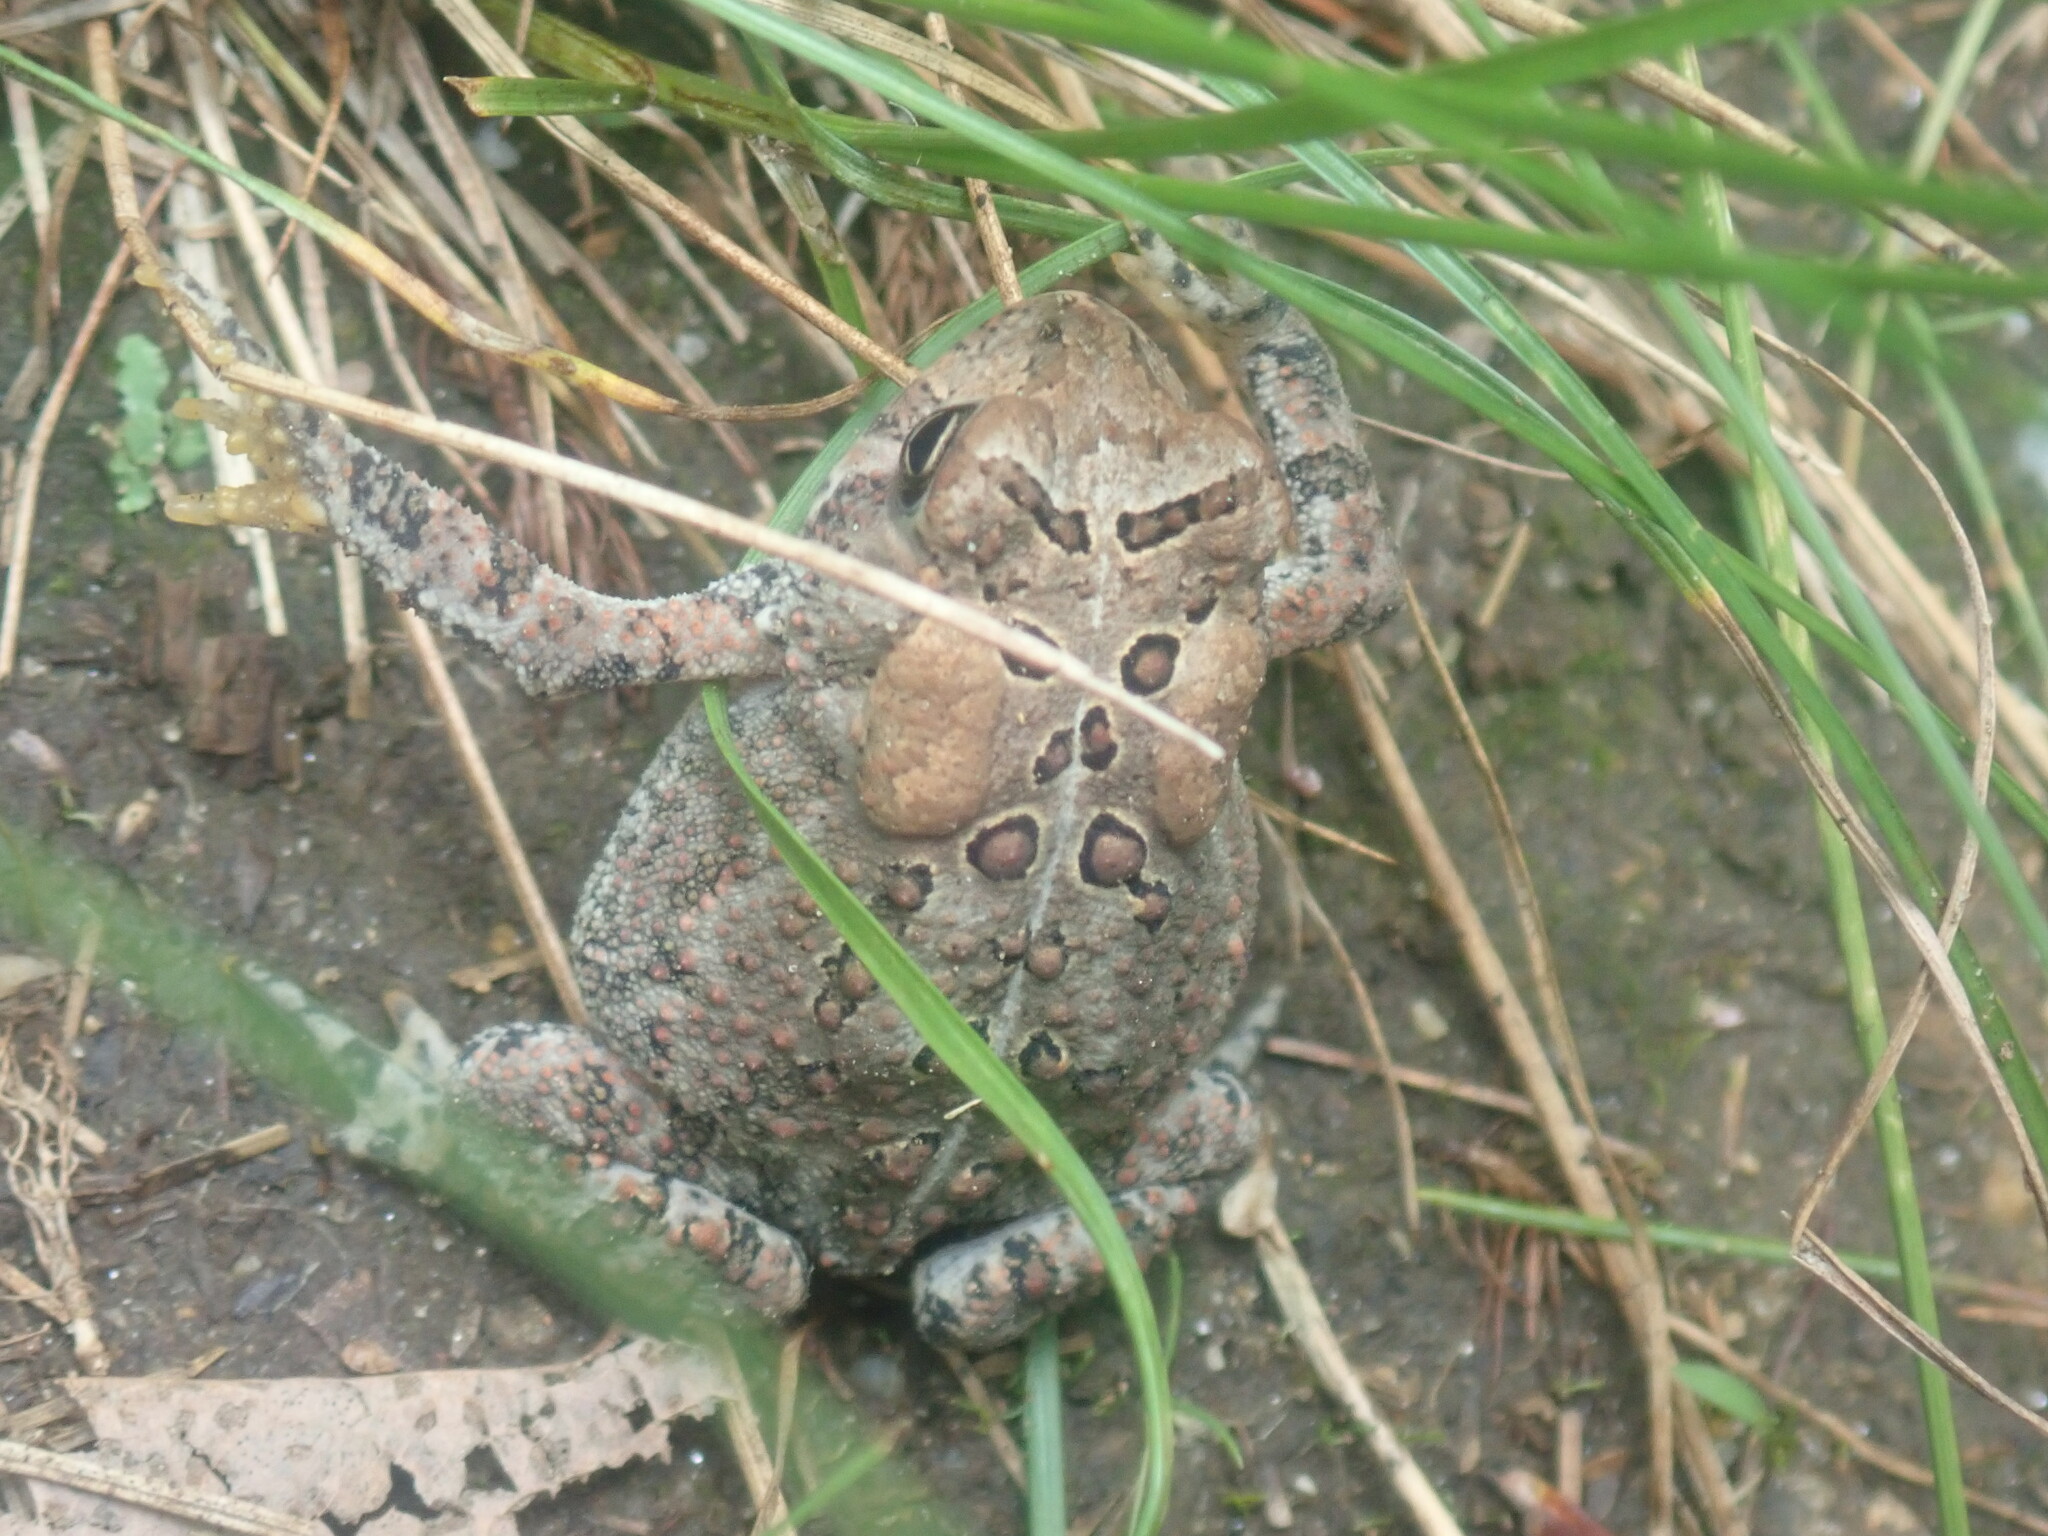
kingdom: Animalia
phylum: Chordata
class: Amphibia
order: Anura
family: Bufonidae
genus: Anaxyrus
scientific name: Anaxyrus americanus
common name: American toad
